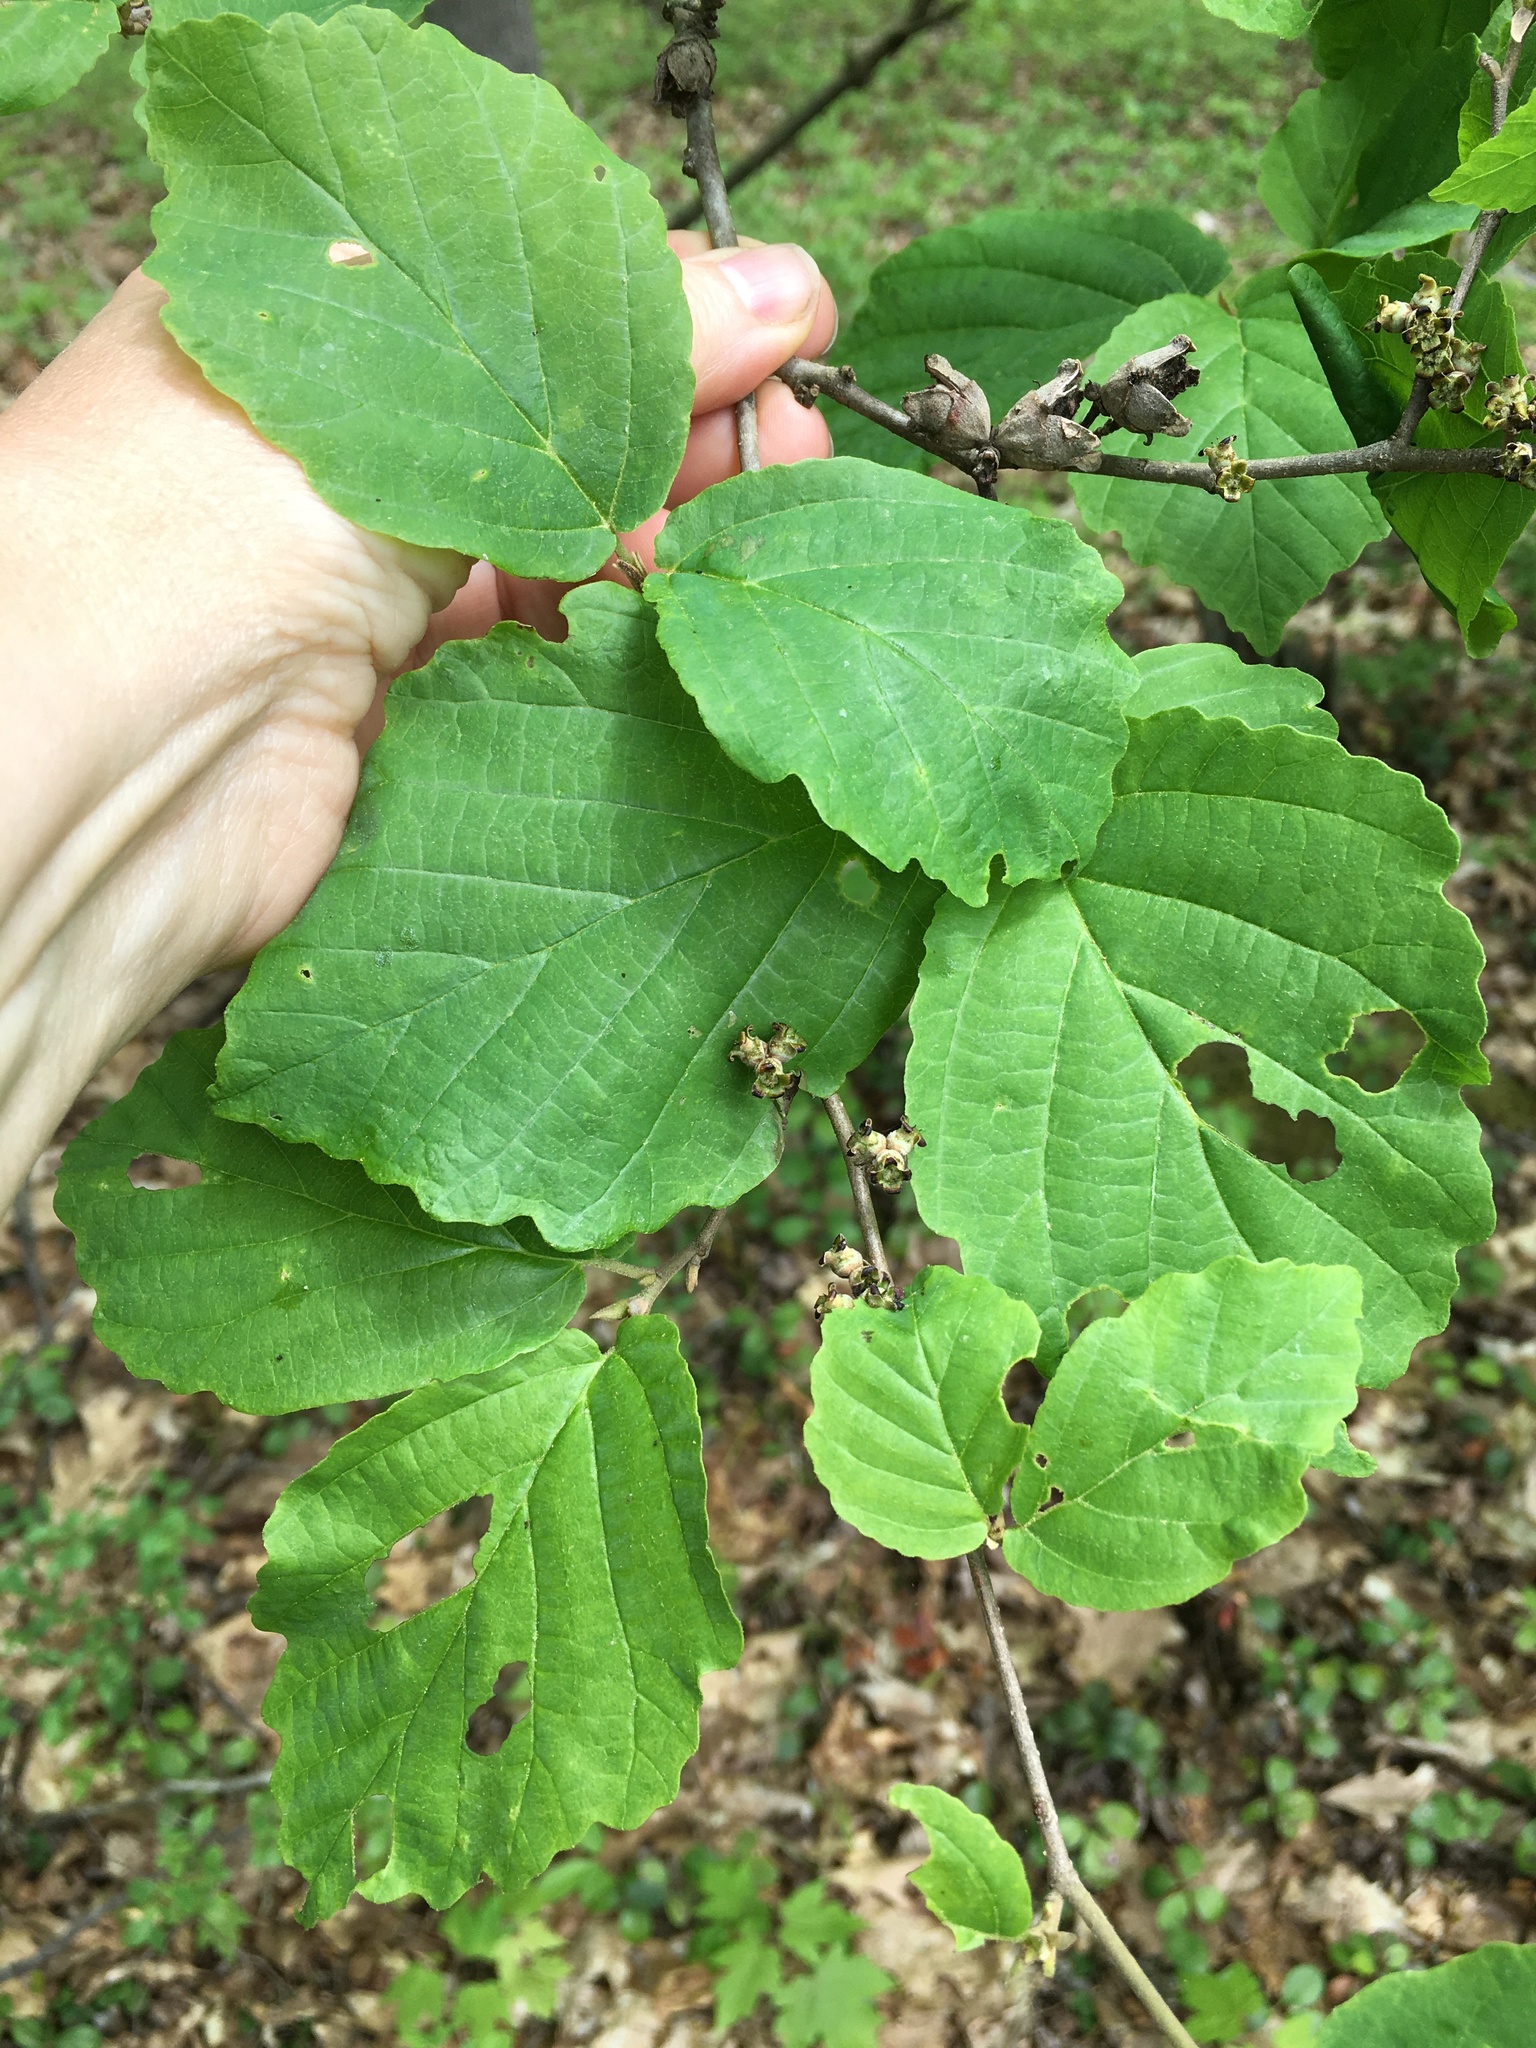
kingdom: Plantae
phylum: Tracheophyta
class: Magnoliopsida
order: Saxifragales
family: Hamamelidaceae
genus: Hamamelis
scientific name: Hamamelis virginiana
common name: Witch-hazel
